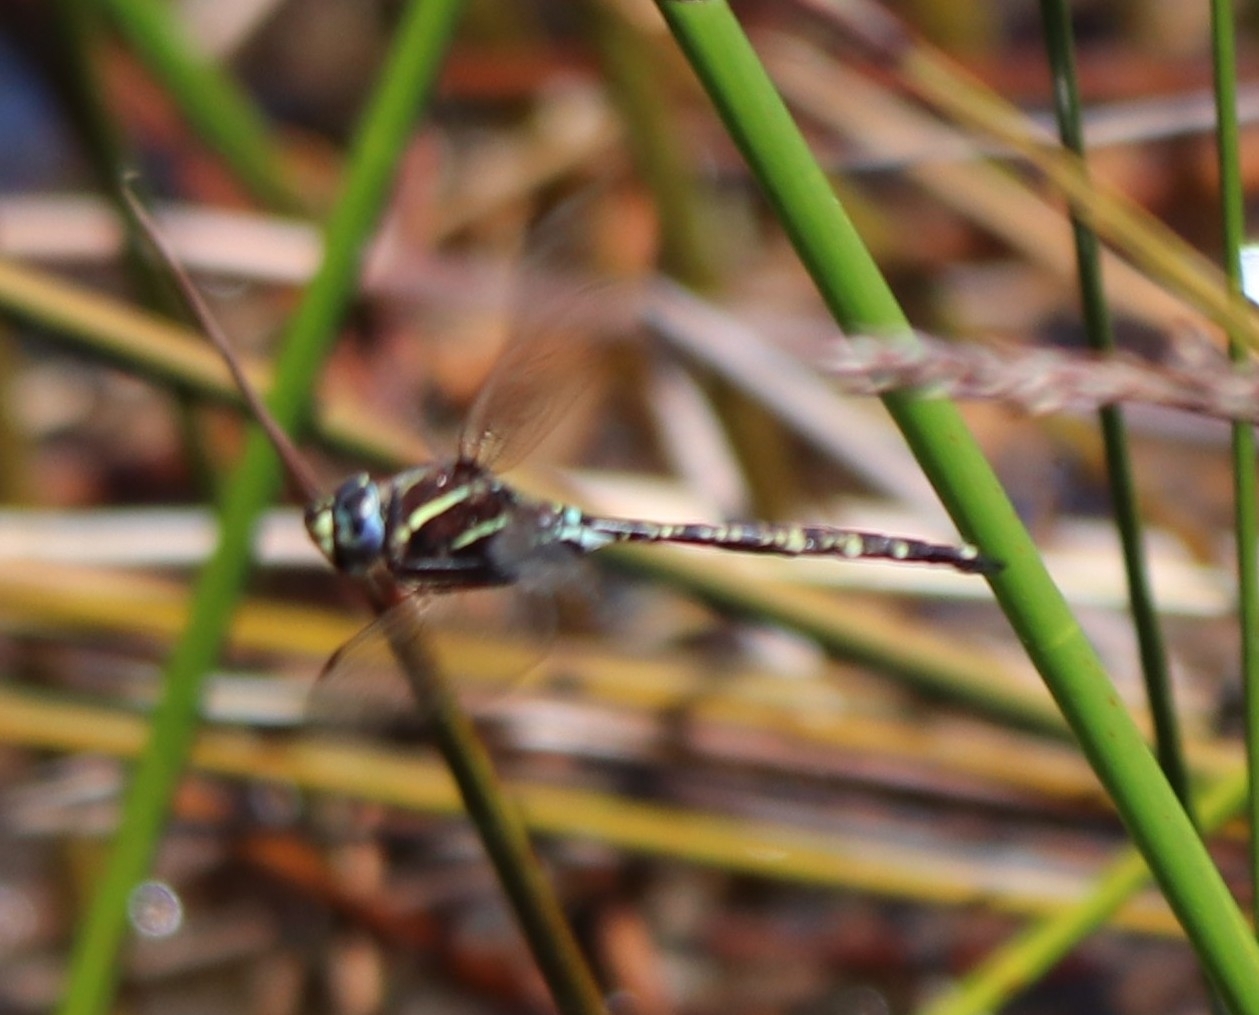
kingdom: Animalia
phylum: Arthropoda
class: Insecta
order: Odonata
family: Aeshnidae
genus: Aeshna
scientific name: Aeshna brevistyla
